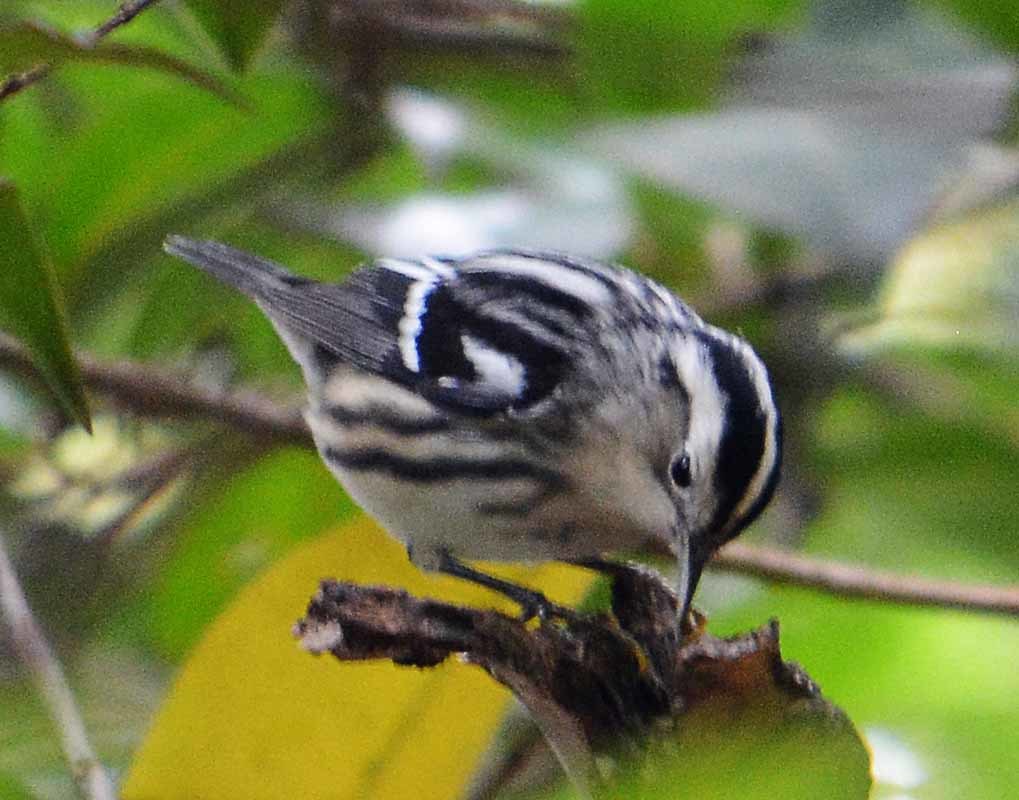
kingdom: Animalia
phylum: Chordata
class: Aves
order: Passeriformes
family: Parulidae
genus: Mniotilta
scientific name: Mniotilta varia
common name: Black-and-white warbler
